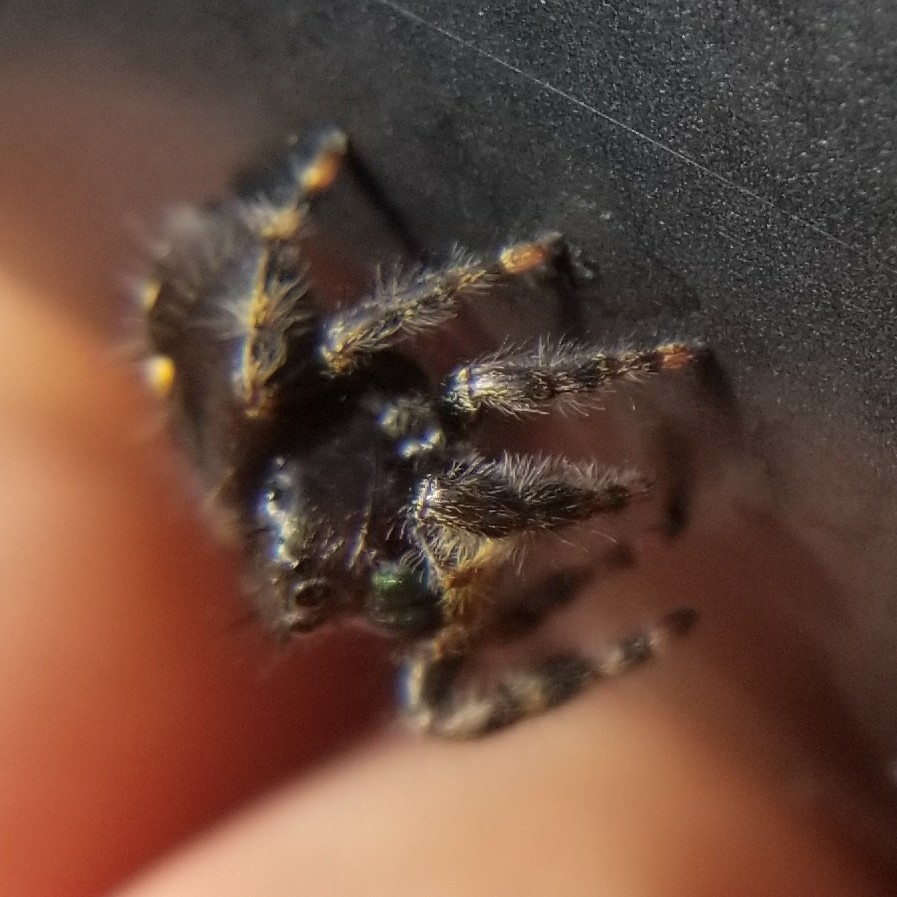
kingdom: Animalia
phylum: Arthropoda
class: Arachnida
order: Araneae
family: Salticidae
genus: Phidippus
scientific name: Phidippus audax
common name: Bold jumper
